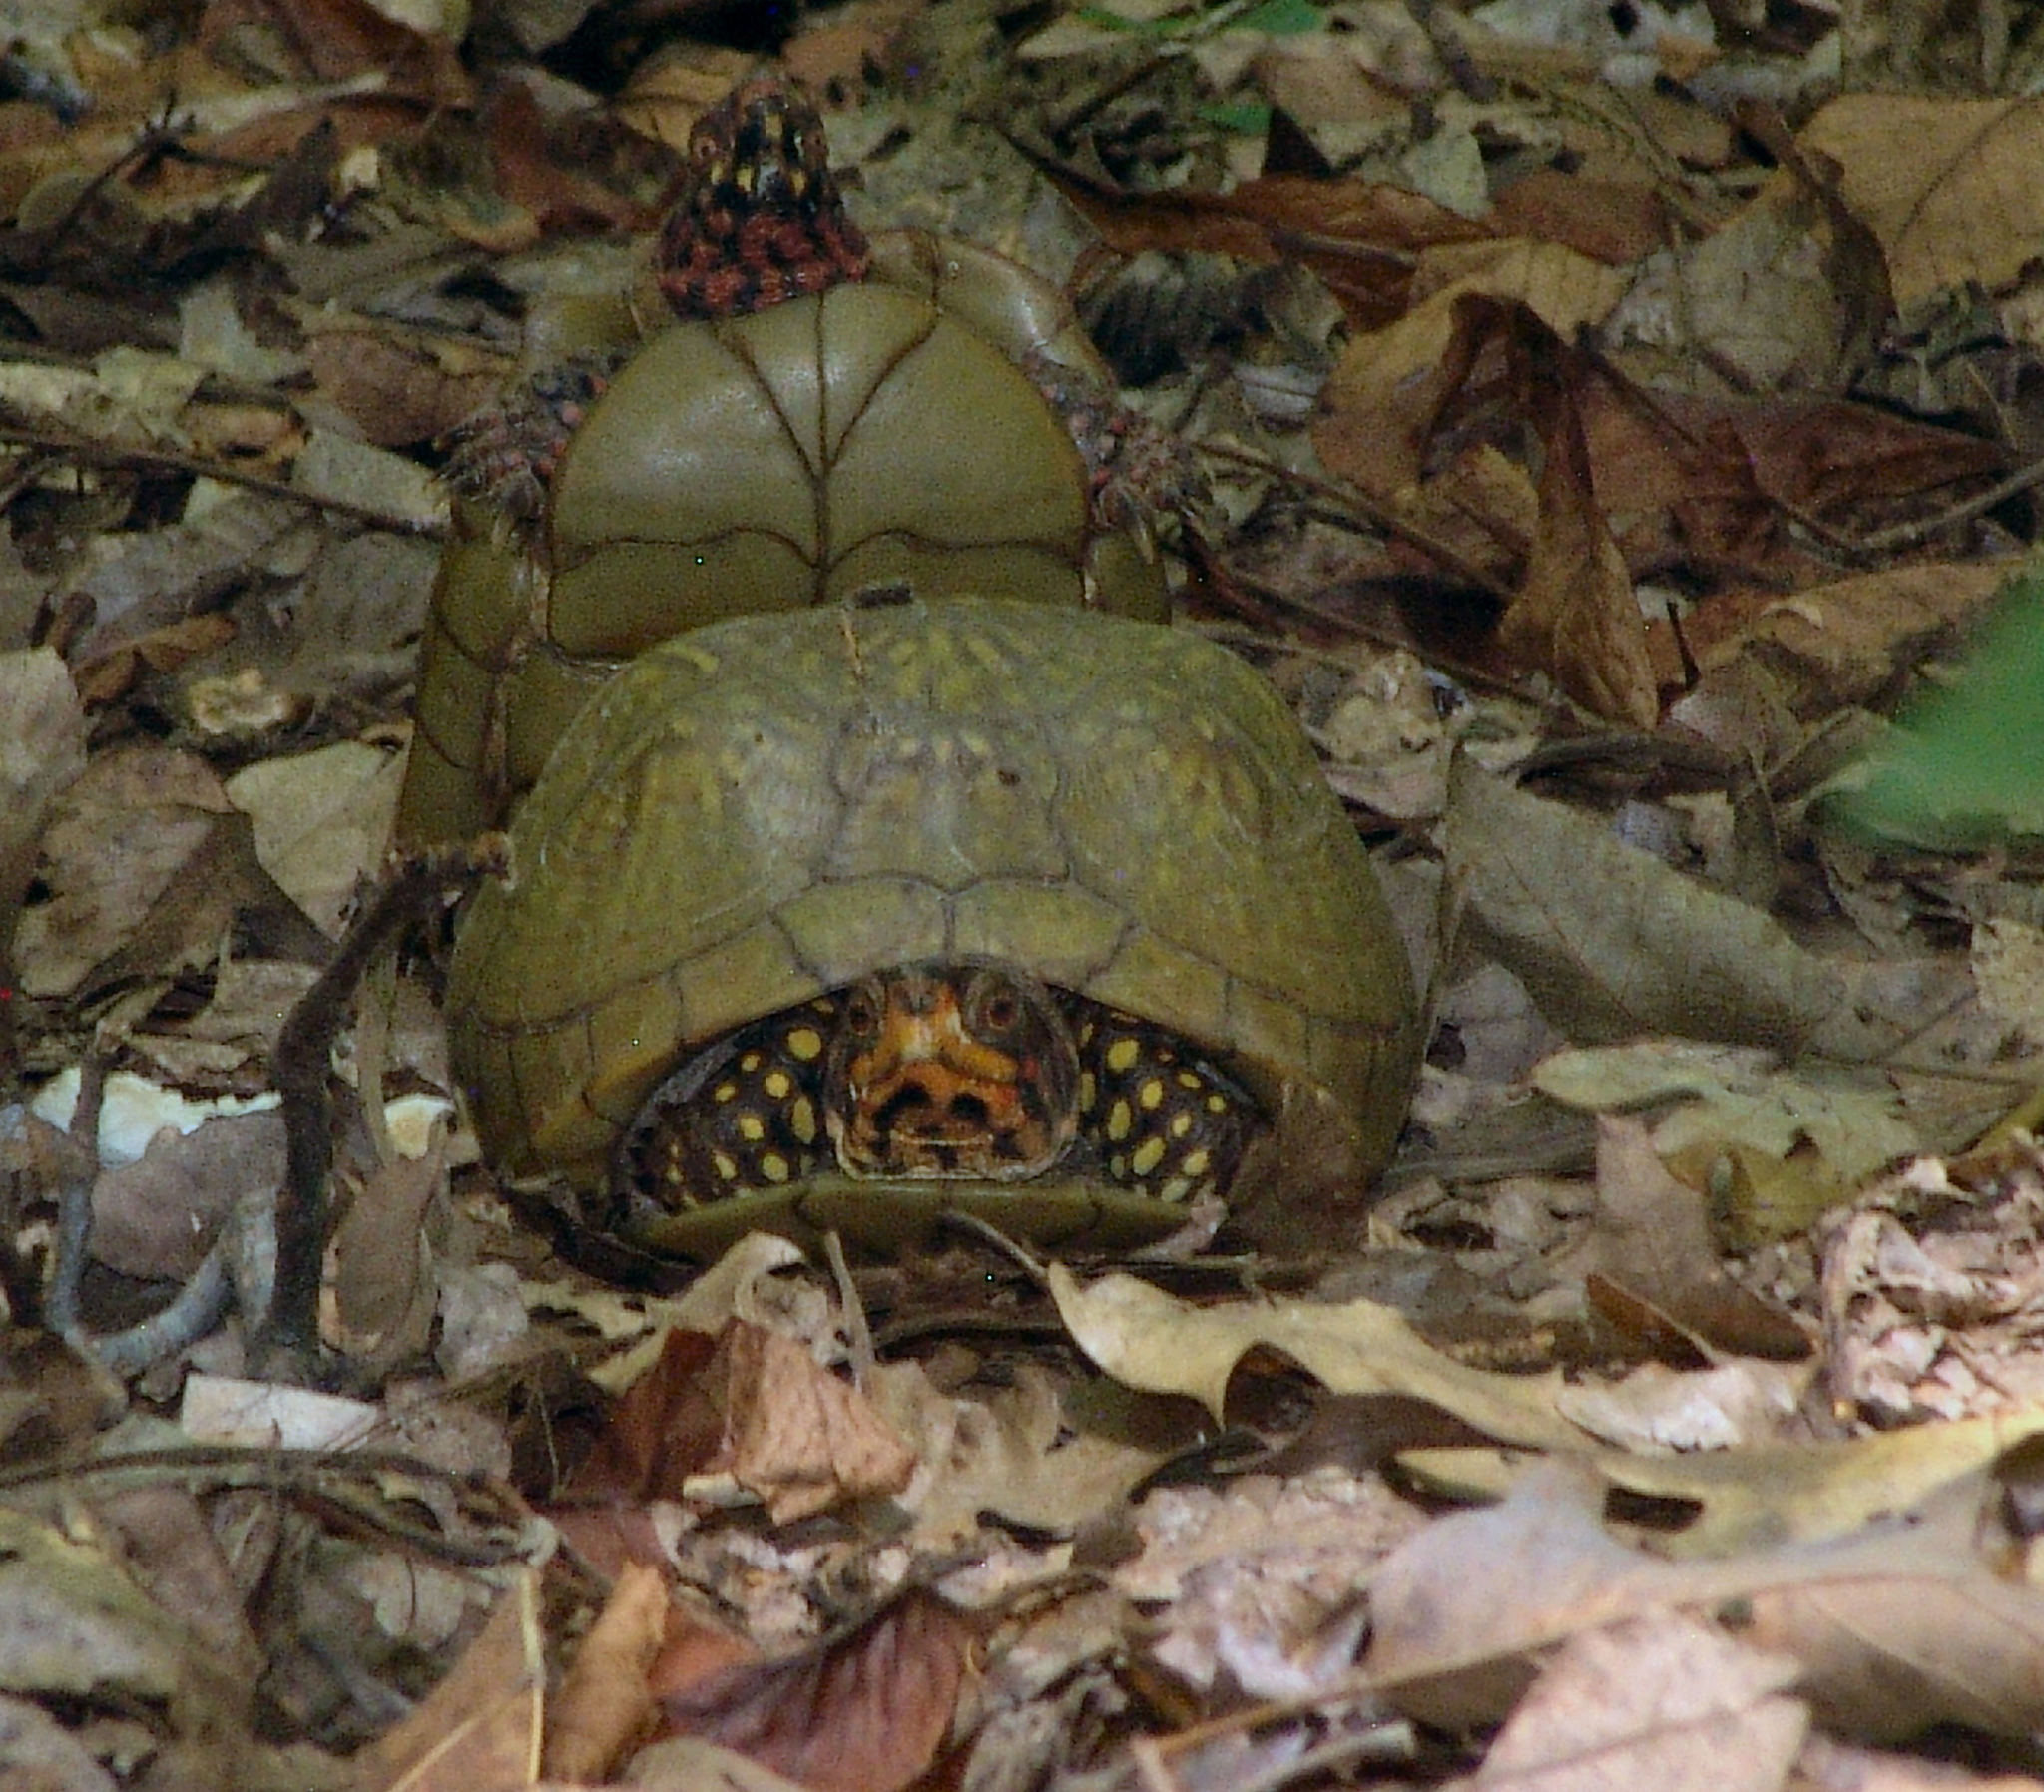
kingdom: Animalia
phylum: Chordata
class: Testudines
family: Emydidae
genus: Terrapene
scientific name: Terrapene carolina
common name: Common box turtle
